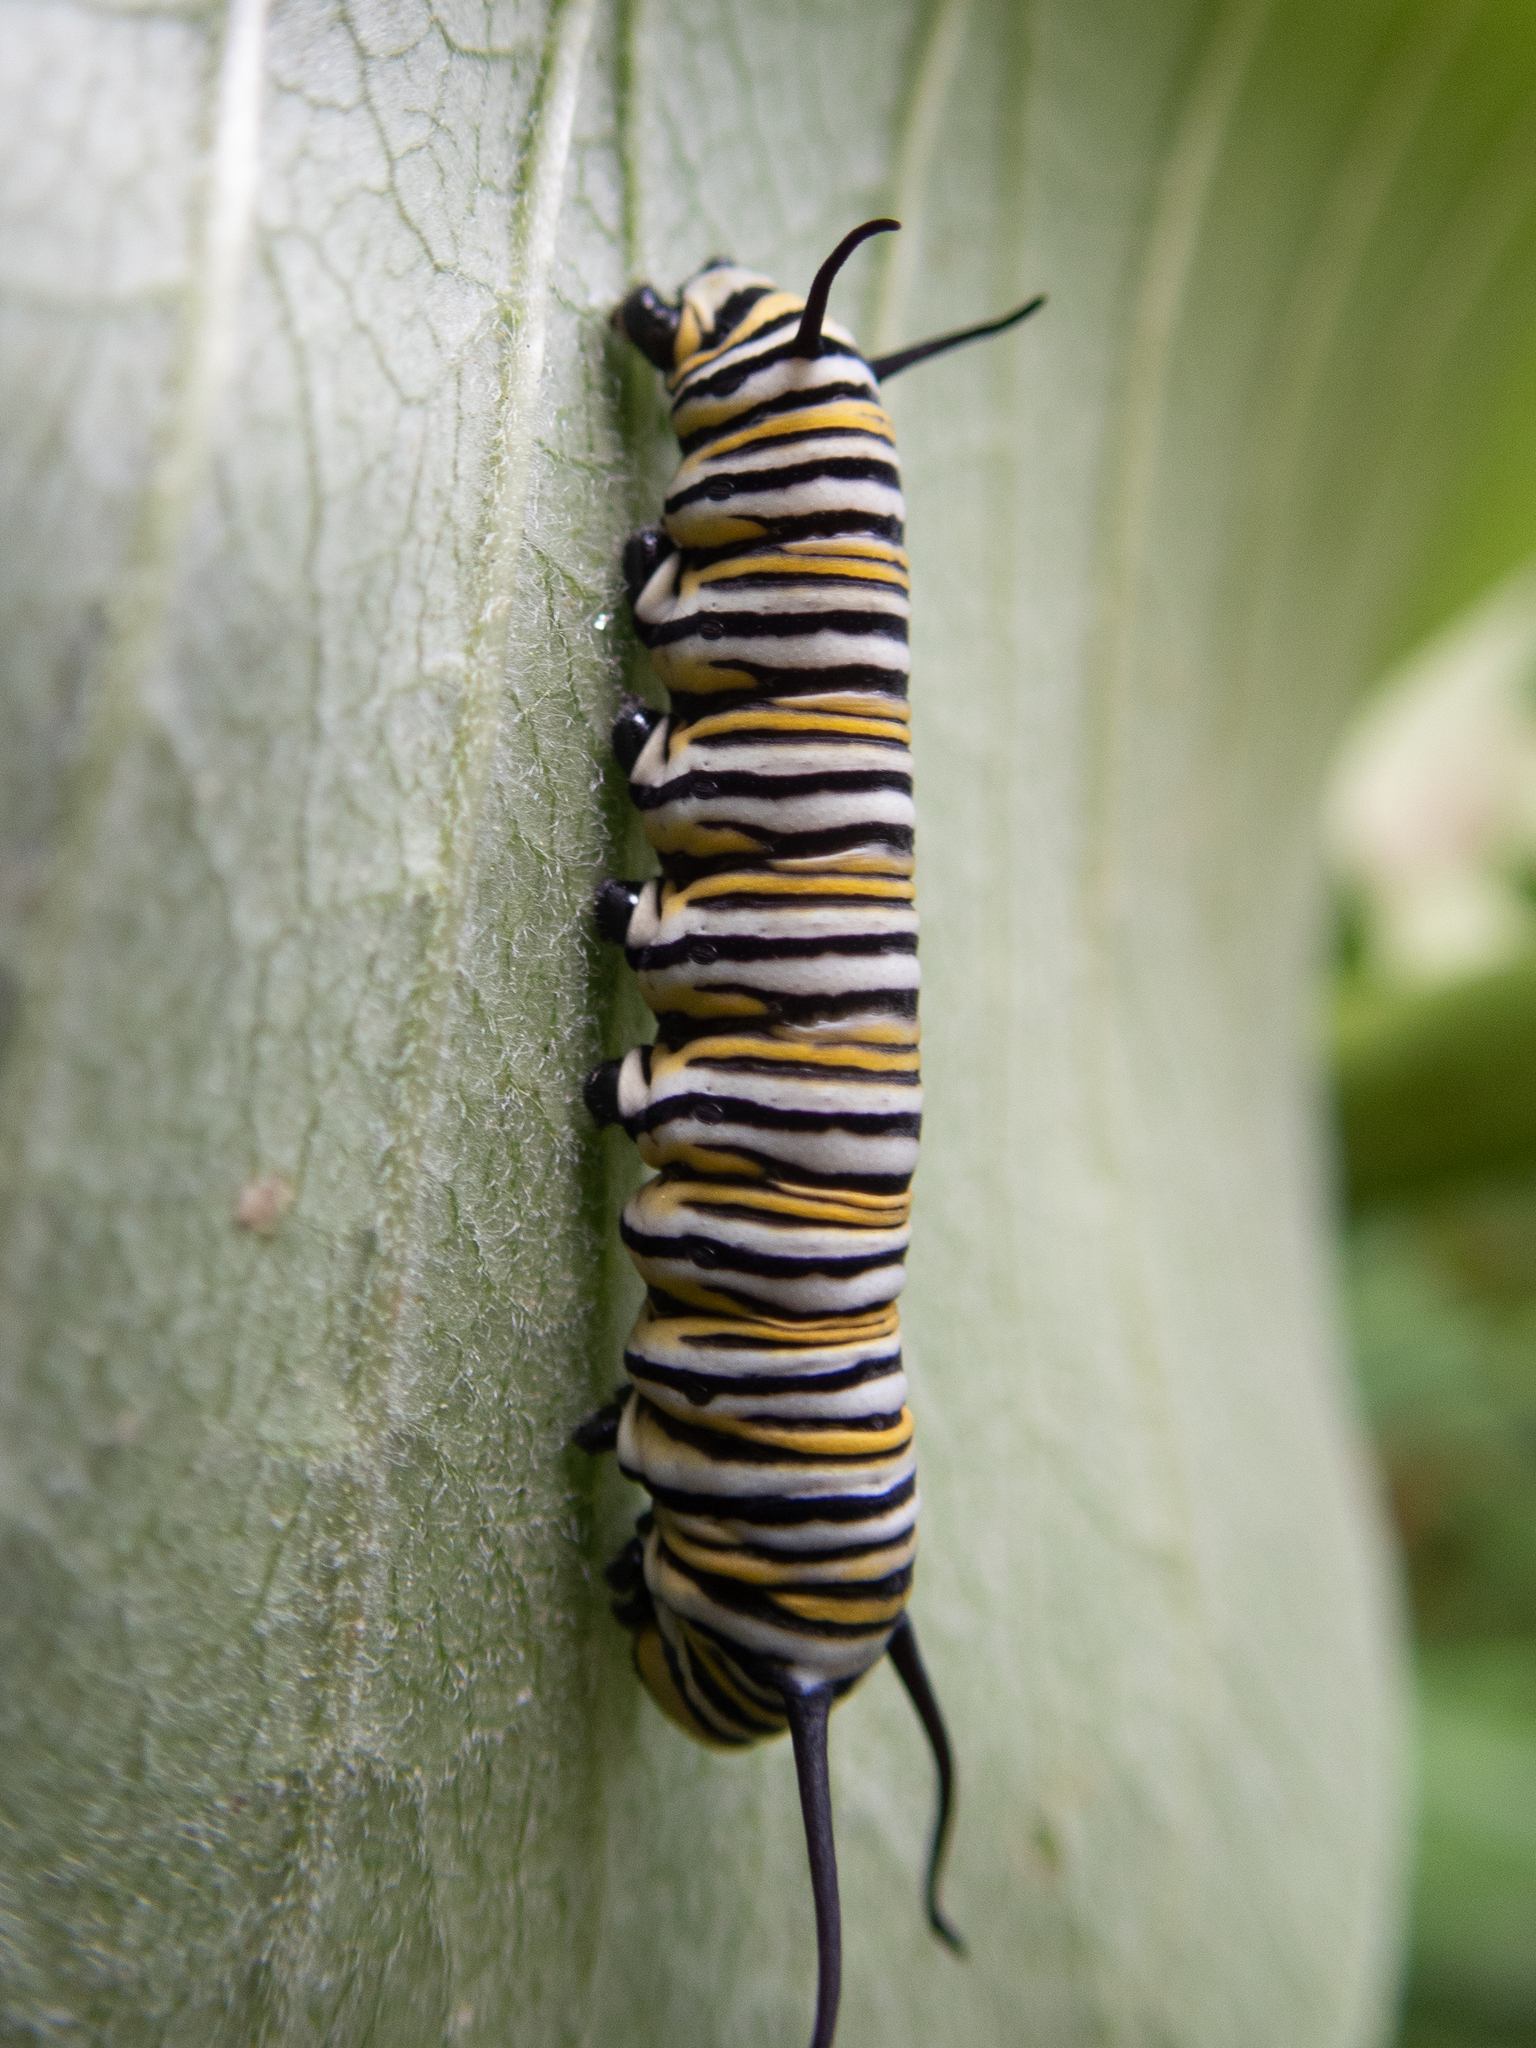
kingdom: Animalia
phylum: Arthropoda
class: Insecta
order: Lepidoptera
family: Nymphalidae
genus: Danaus
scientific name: Danaus plexippus
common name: Monarch
